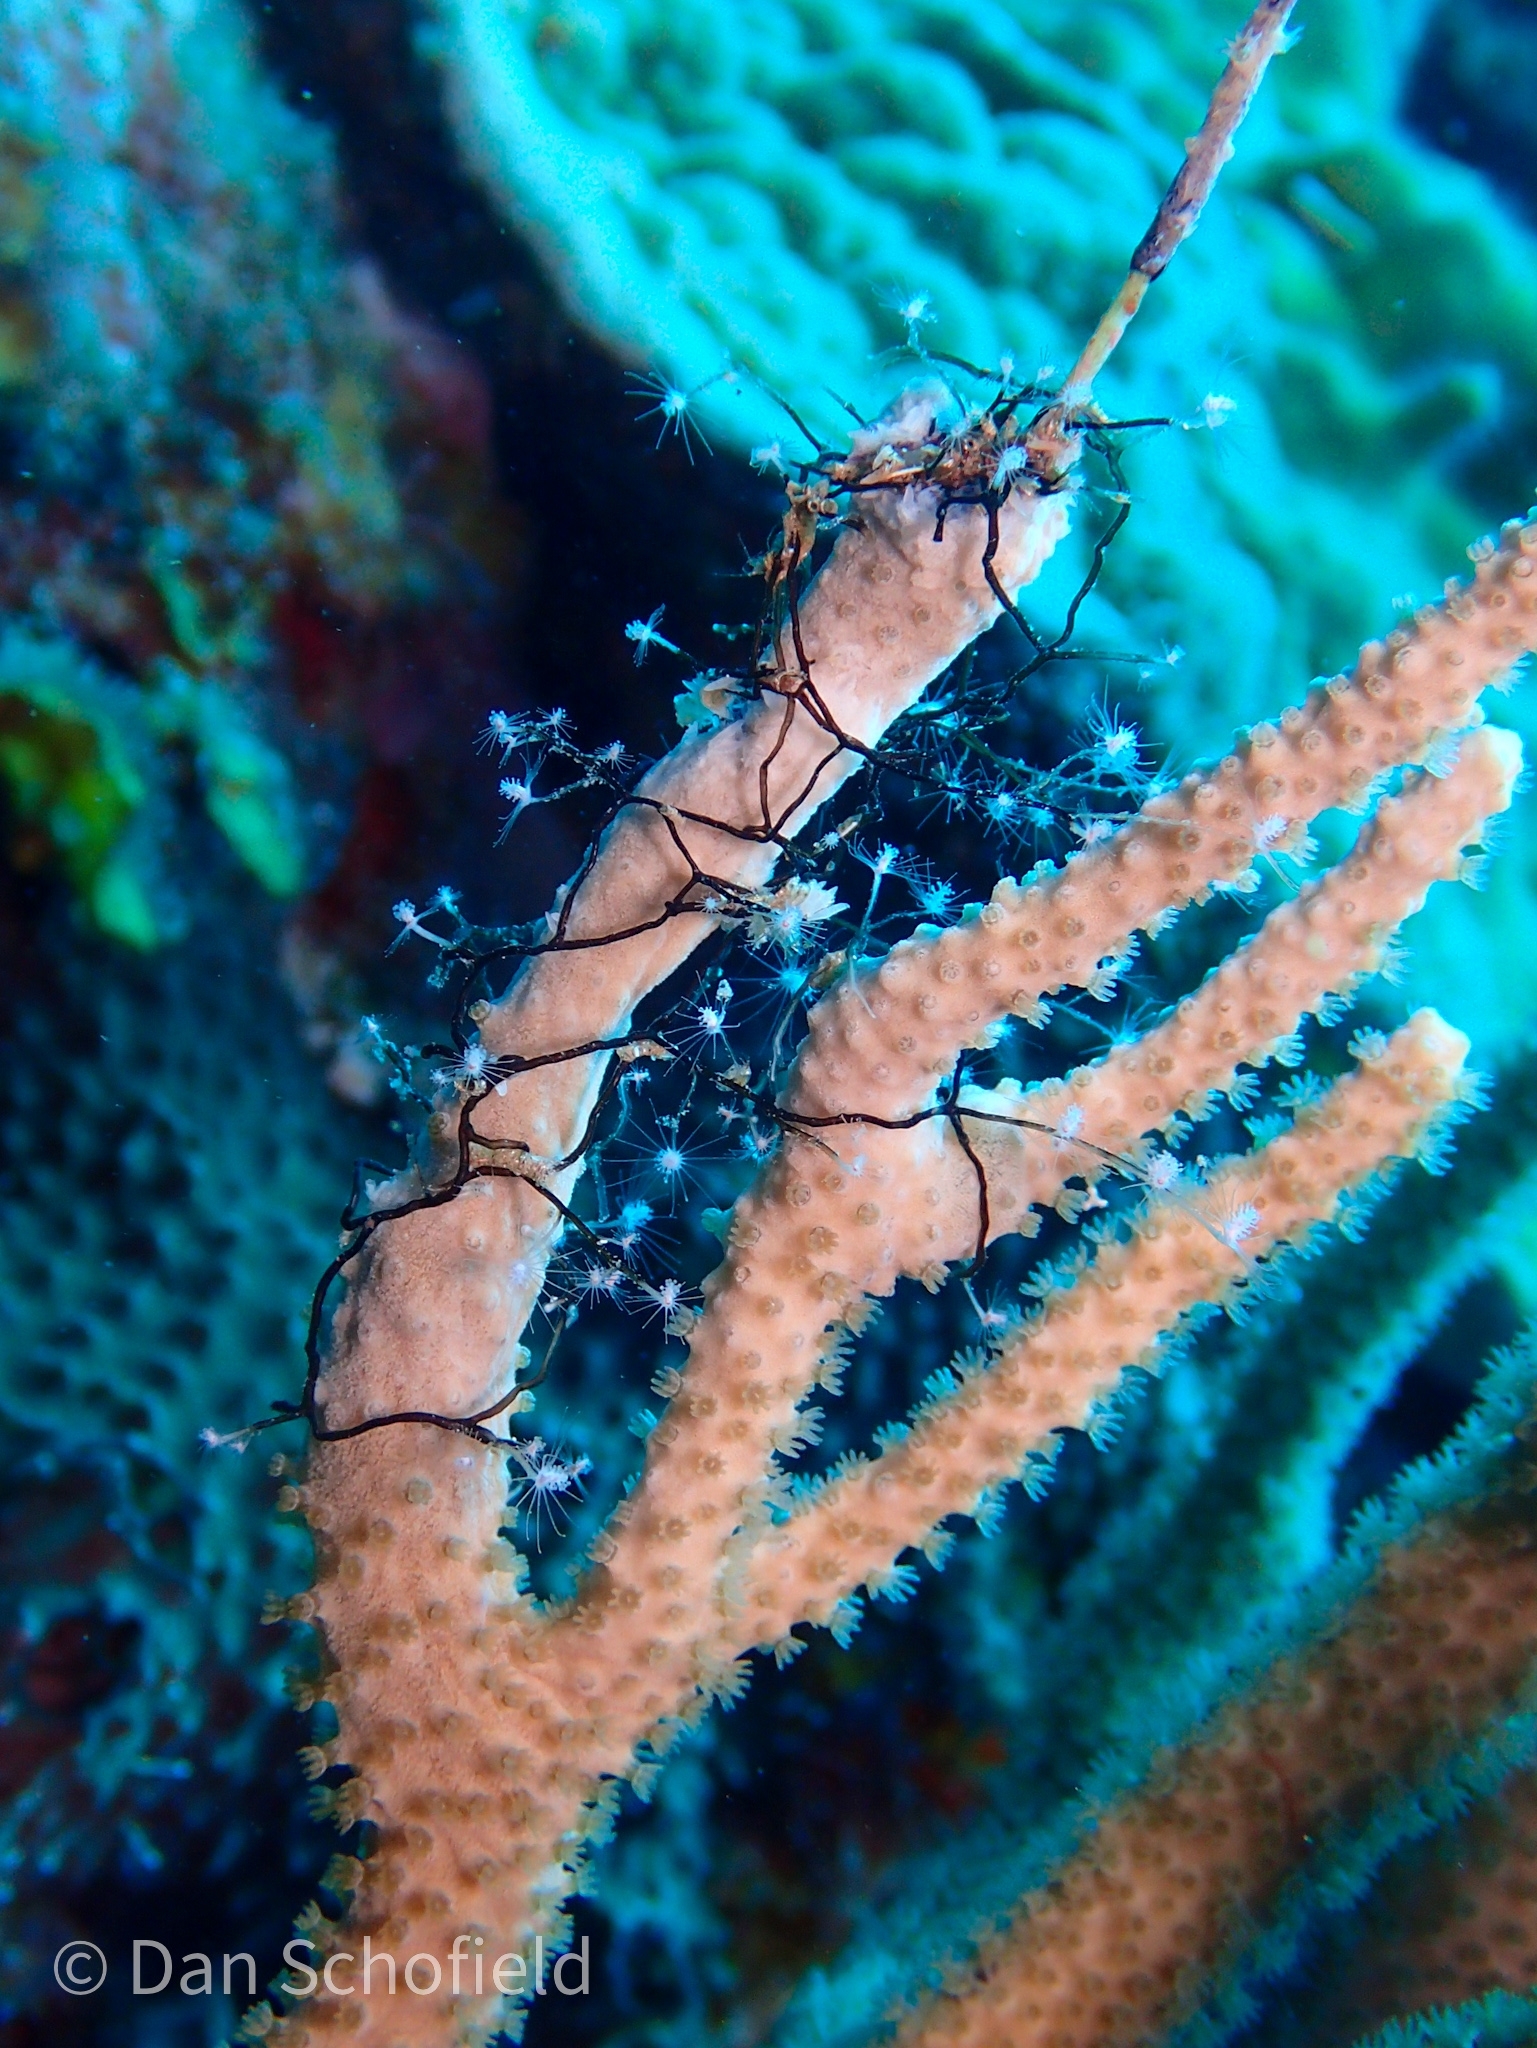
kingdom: Animalia
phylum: Cnidaria
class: Hydrozoa
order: Anthoathecata
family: Pennariidae
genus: Pennaria
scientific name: Pennaria disticha
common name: Feather hydroid
